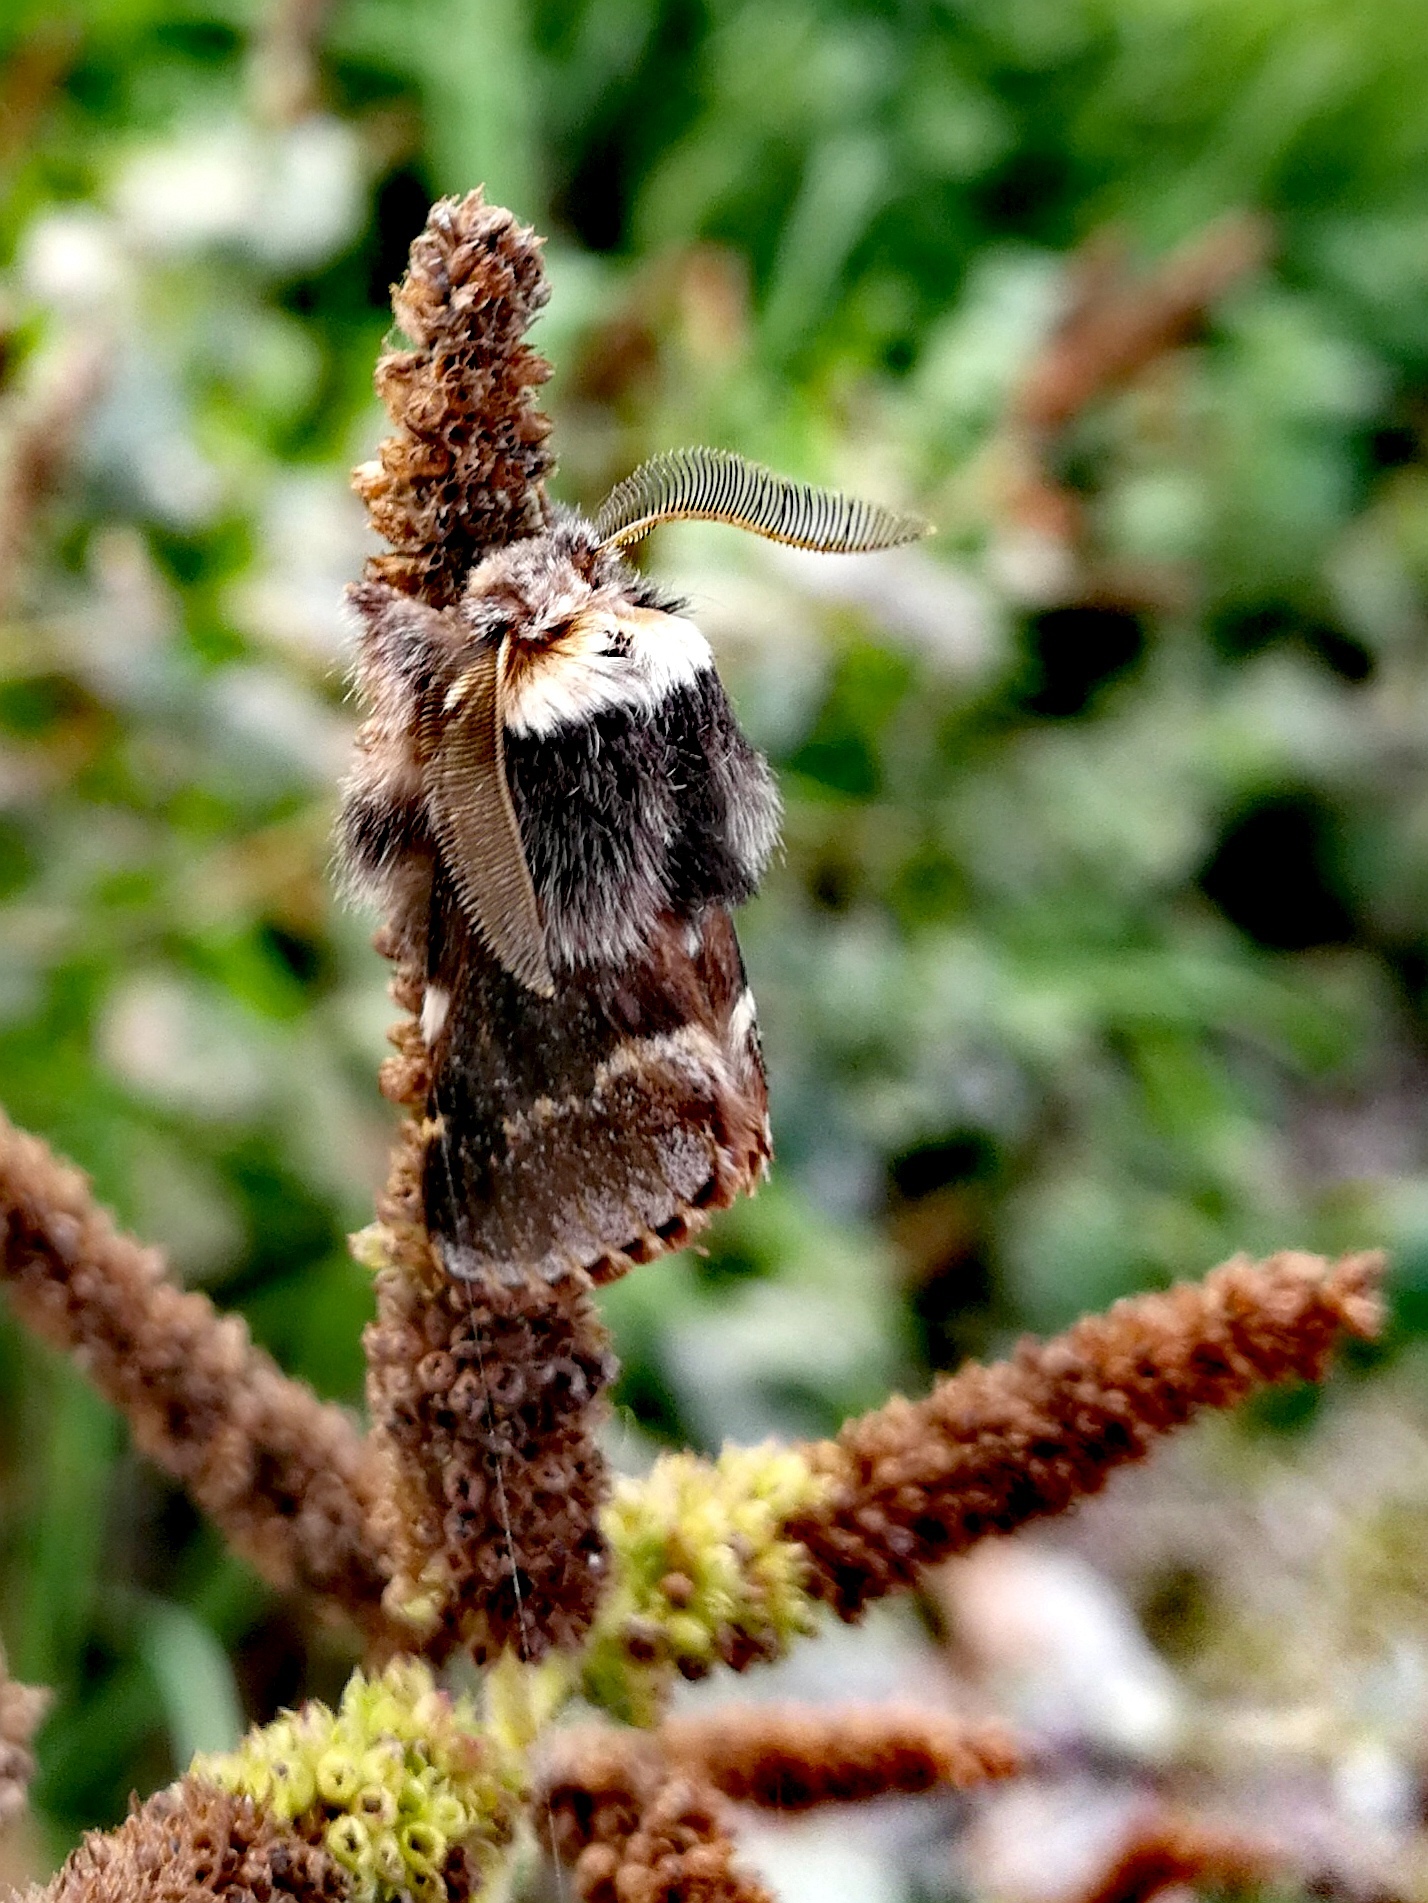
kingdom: Animalia
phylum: Arthropoda
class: Insecta
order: Lepidoptera
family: Lasiocampidae
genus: Poecilocampa
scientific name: Poecilocampa populi
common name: December moth
